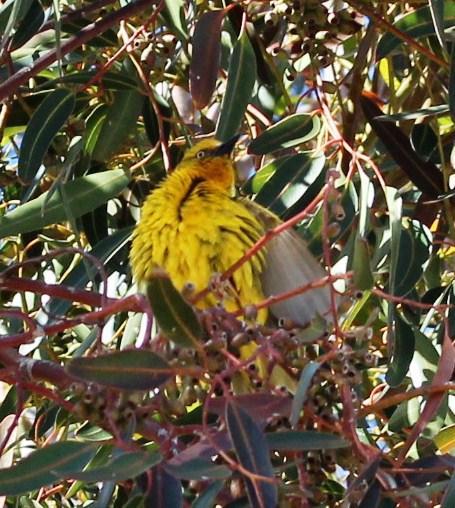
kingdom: Animalia
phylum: Chordata
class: Aves
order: Passeriformes
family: Ploceidae
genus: Ploceus
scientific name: Ploceus capensis
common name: Cape weaver
